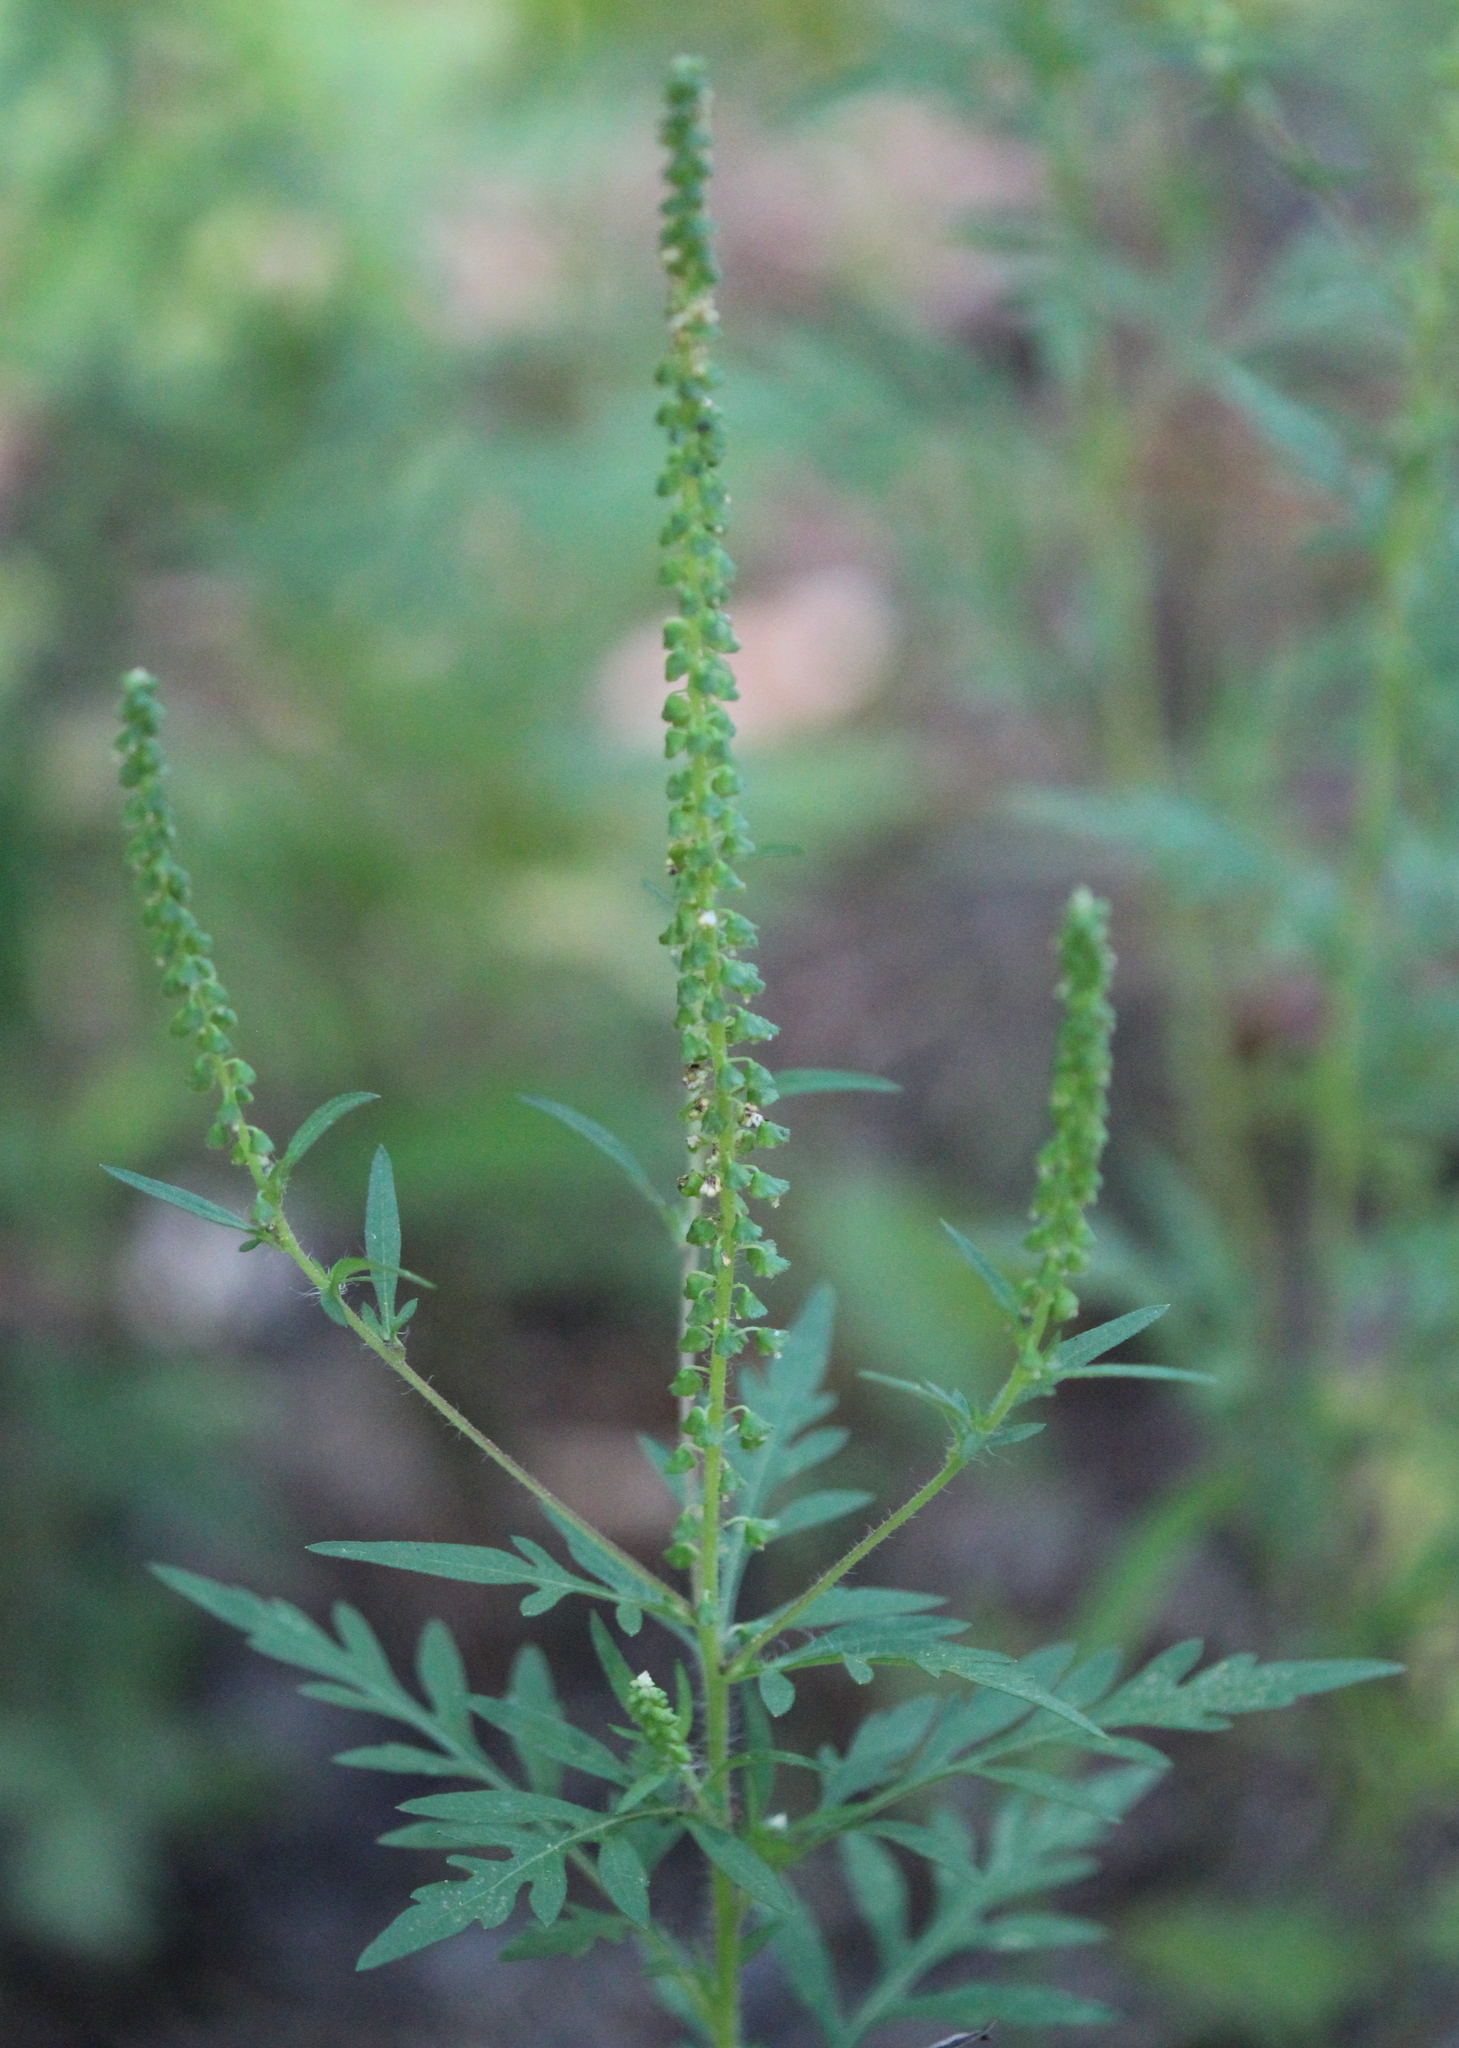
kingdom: Plantae
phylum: Tracheophyta
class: Magnoliopsida
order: Asterales
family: Asteraceae
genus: Ambrosia
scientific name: Ambrosia artemisiifolia
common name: Annual ragweed
